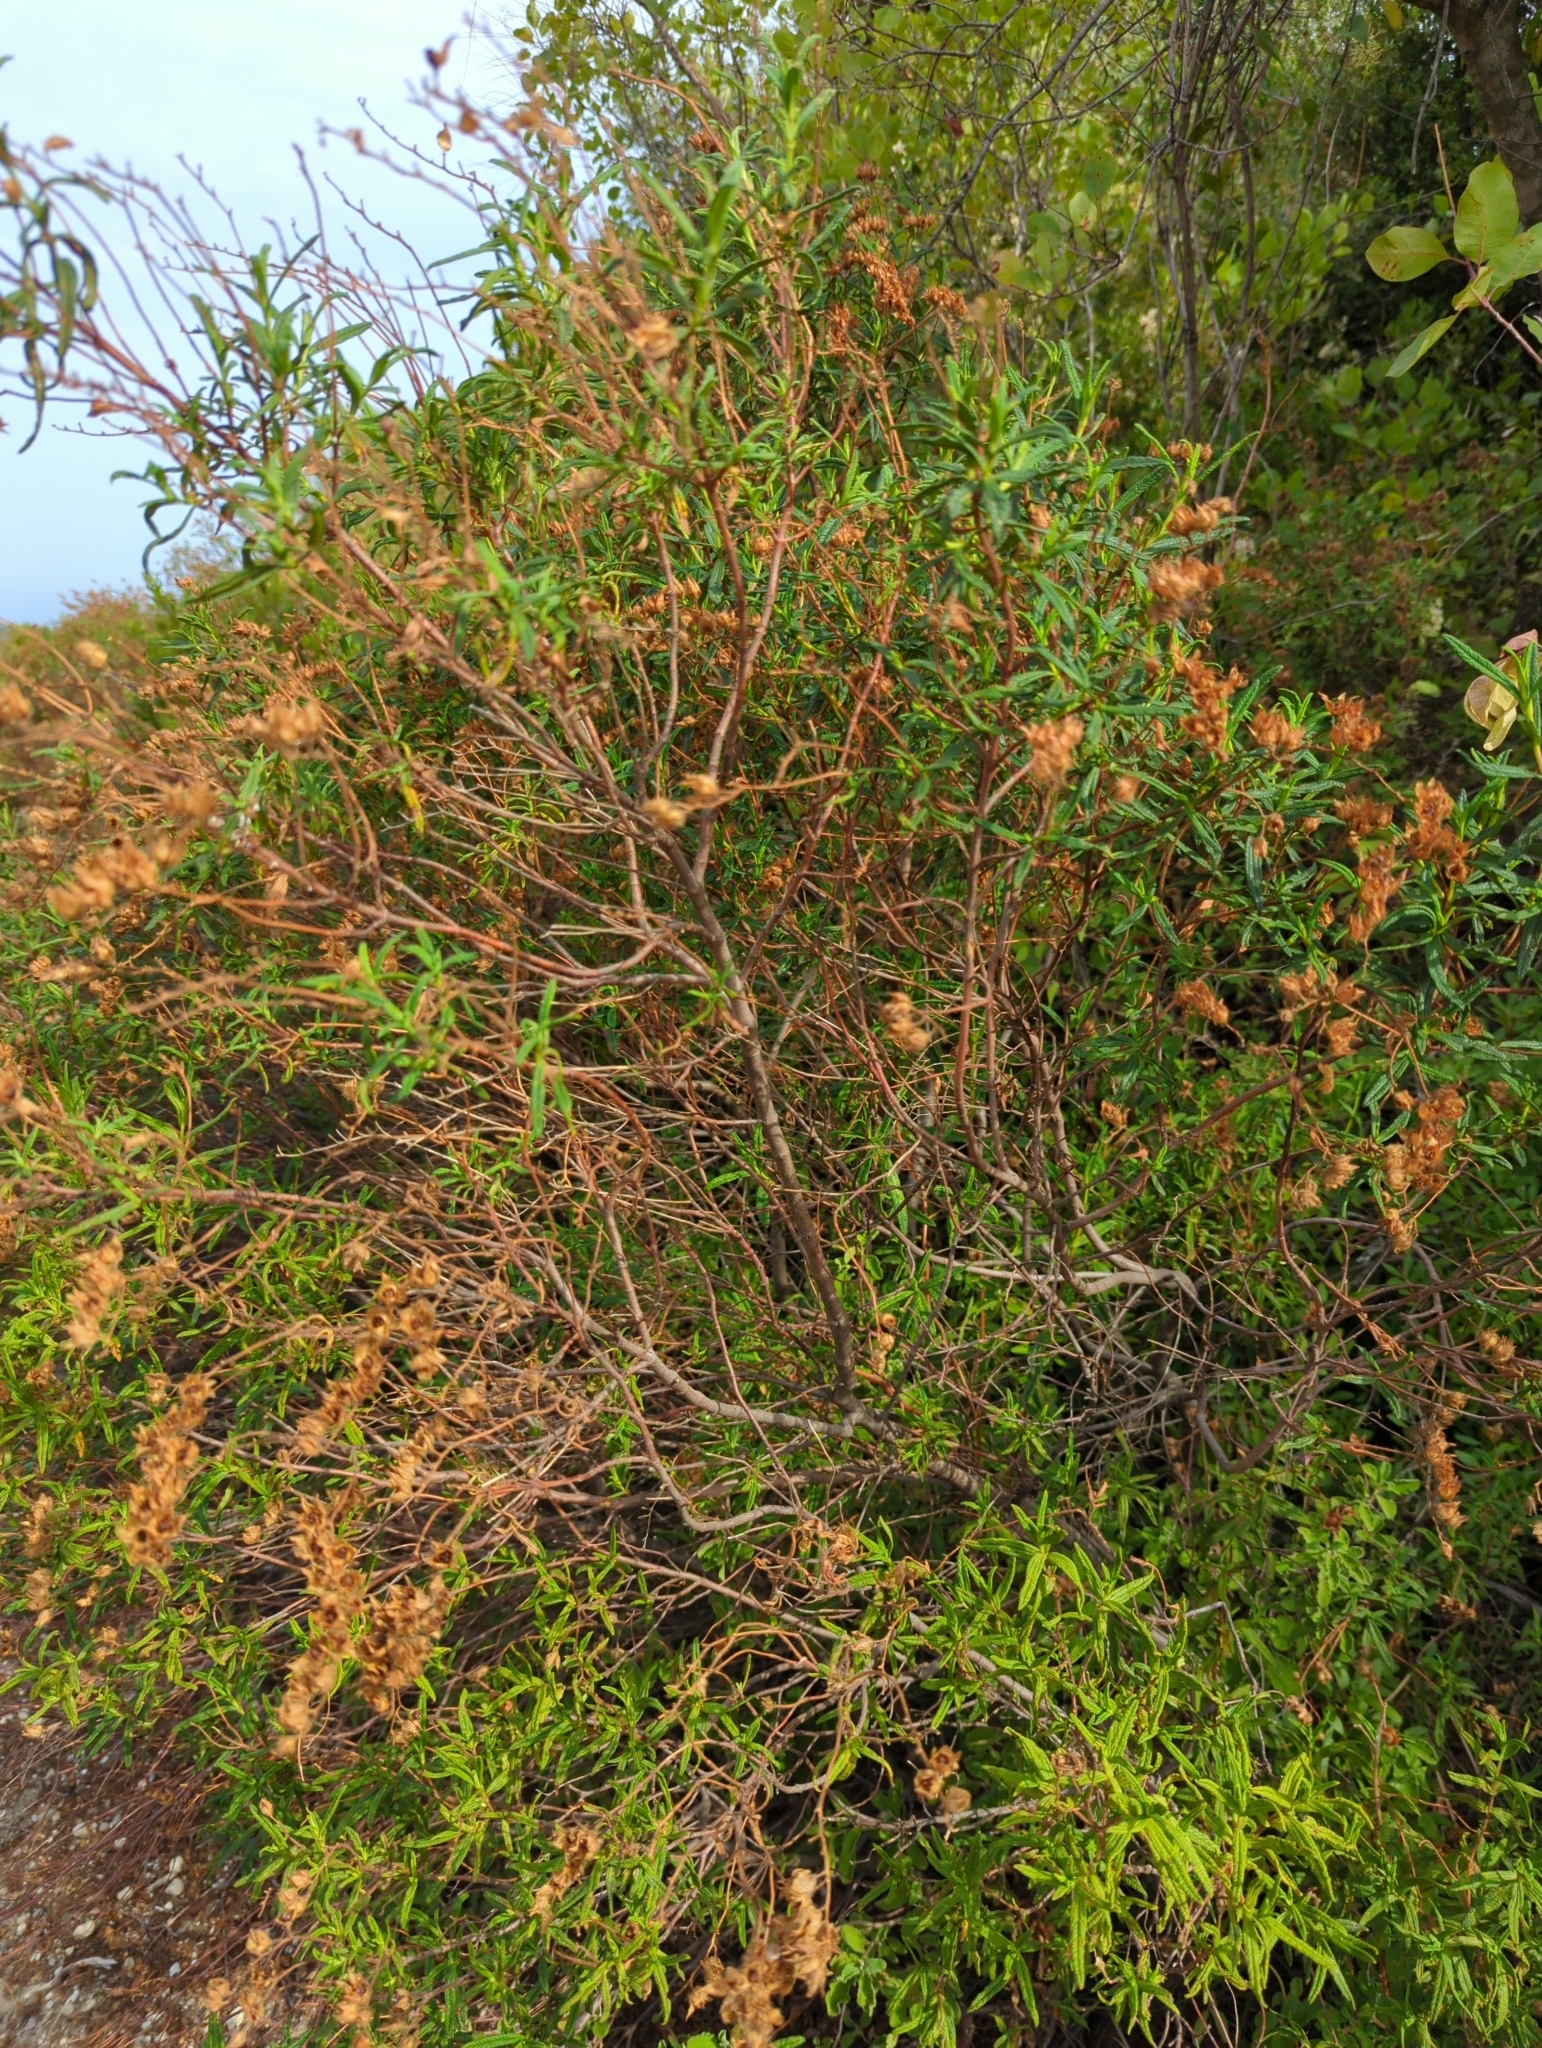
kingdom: Plantae
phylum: Tracheophyta
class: Magnoliopsida
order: Malvales
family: Cistaceae
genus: Cistus
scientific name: Cistus monspeliensis
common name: Montpelier cistus
